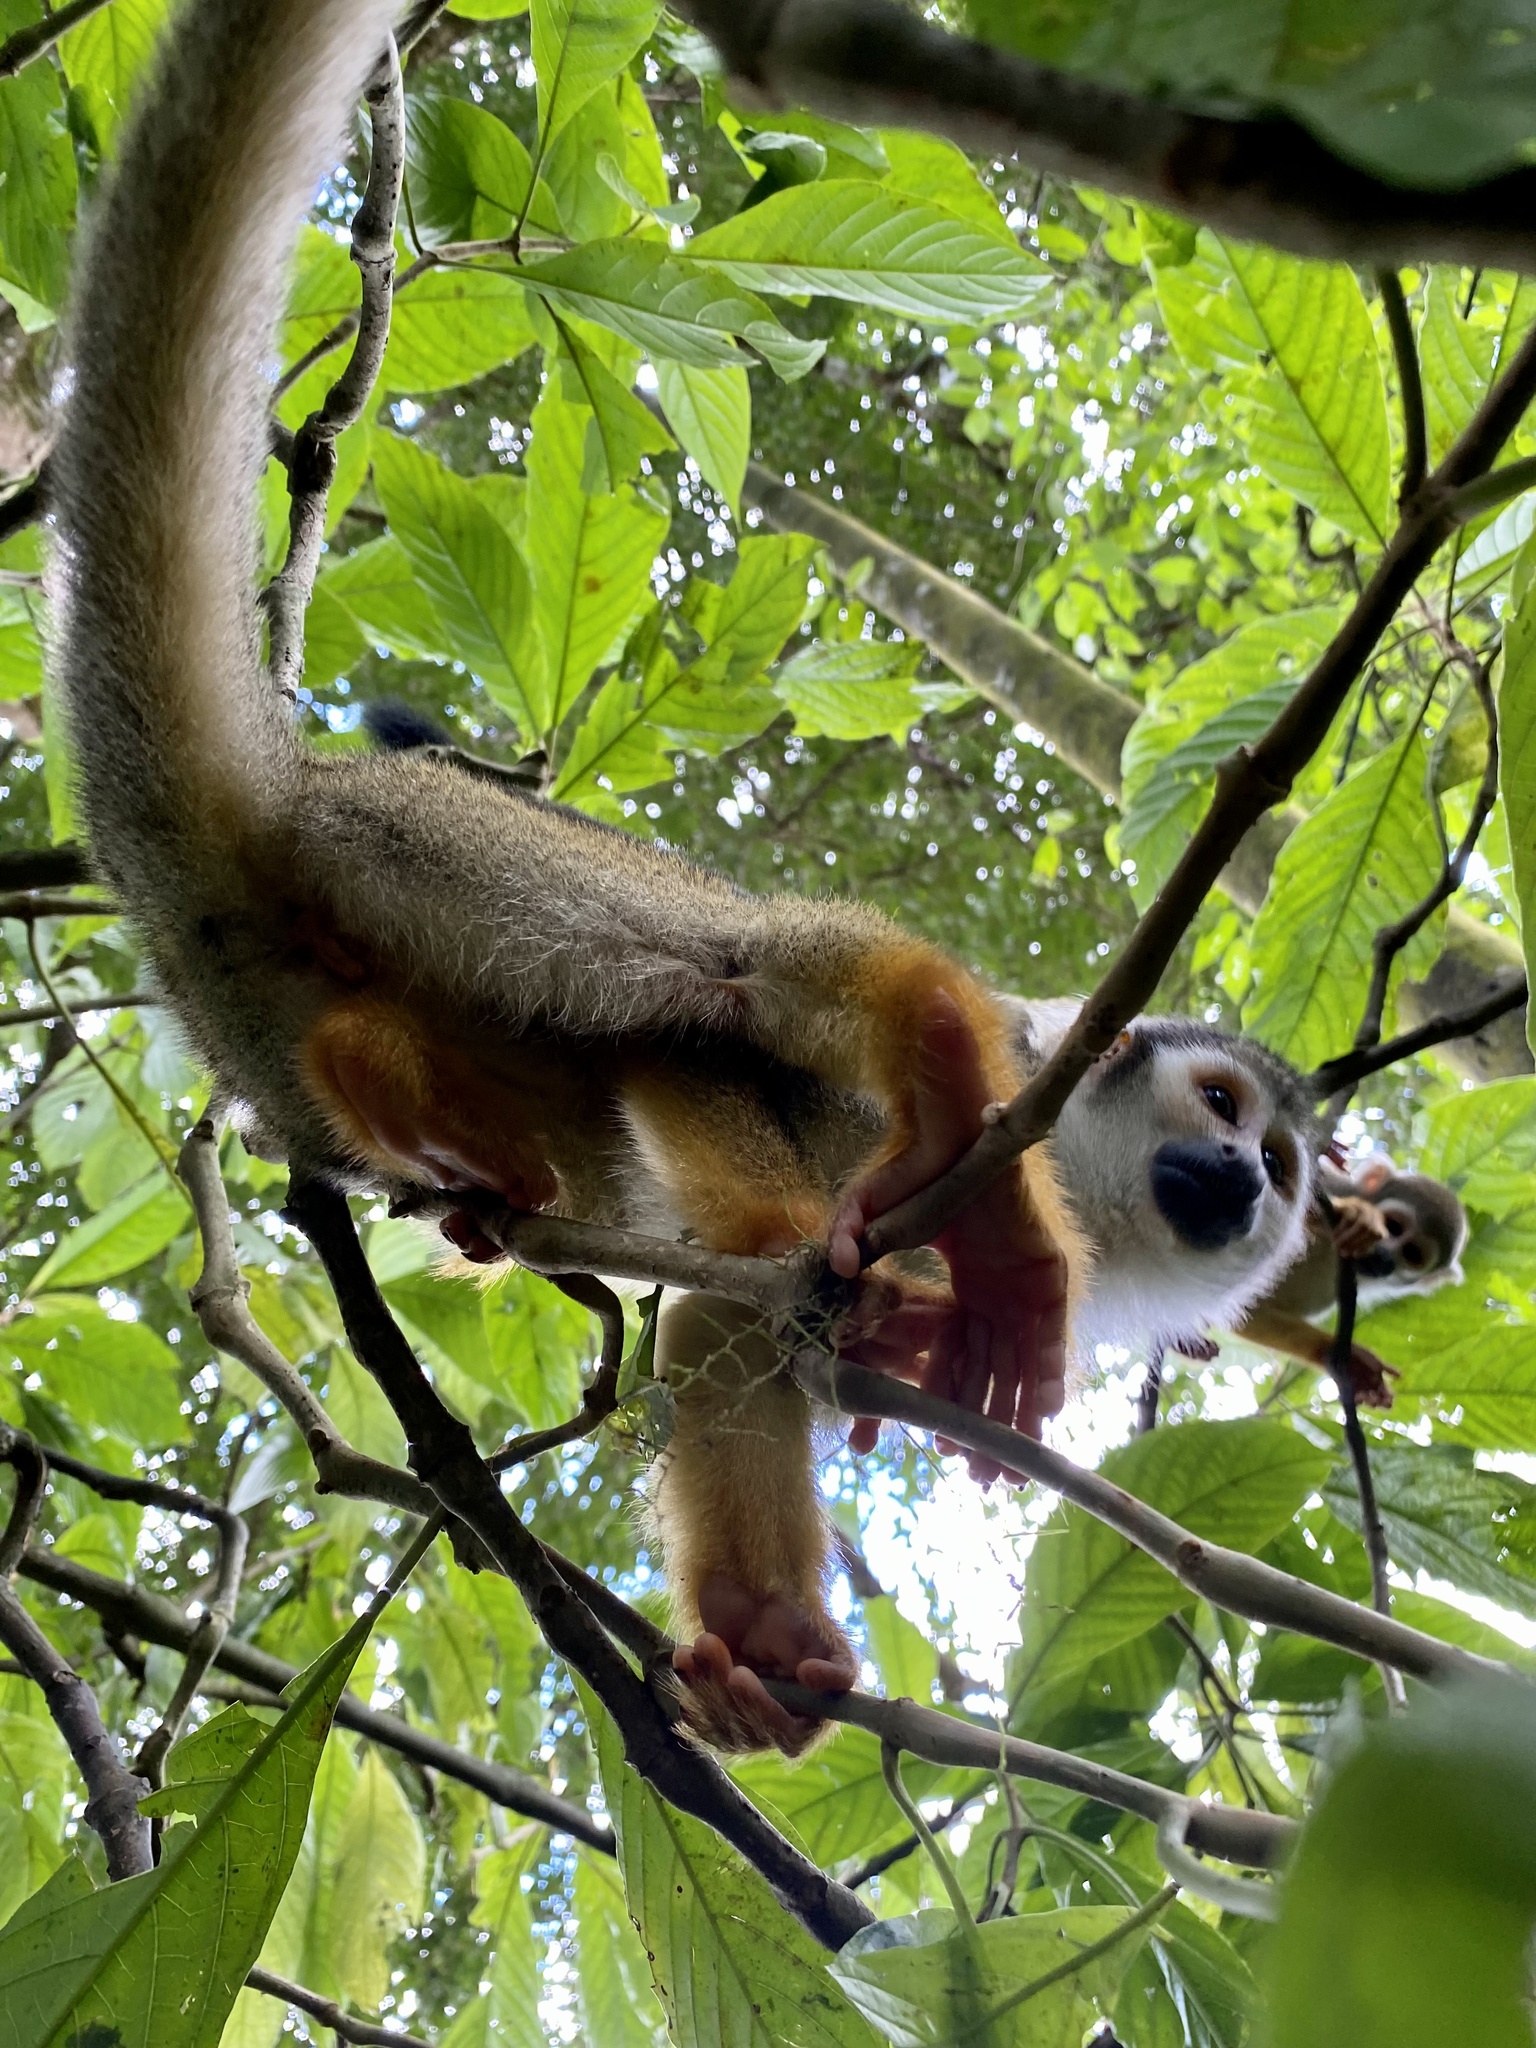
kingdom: Animalia
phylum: Chordata
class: Mammalia
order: Primates
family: Cebidae
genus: Saimiri
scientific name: Saimiri cassiquiarensis
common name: Humboldt’s squirrel monkey
